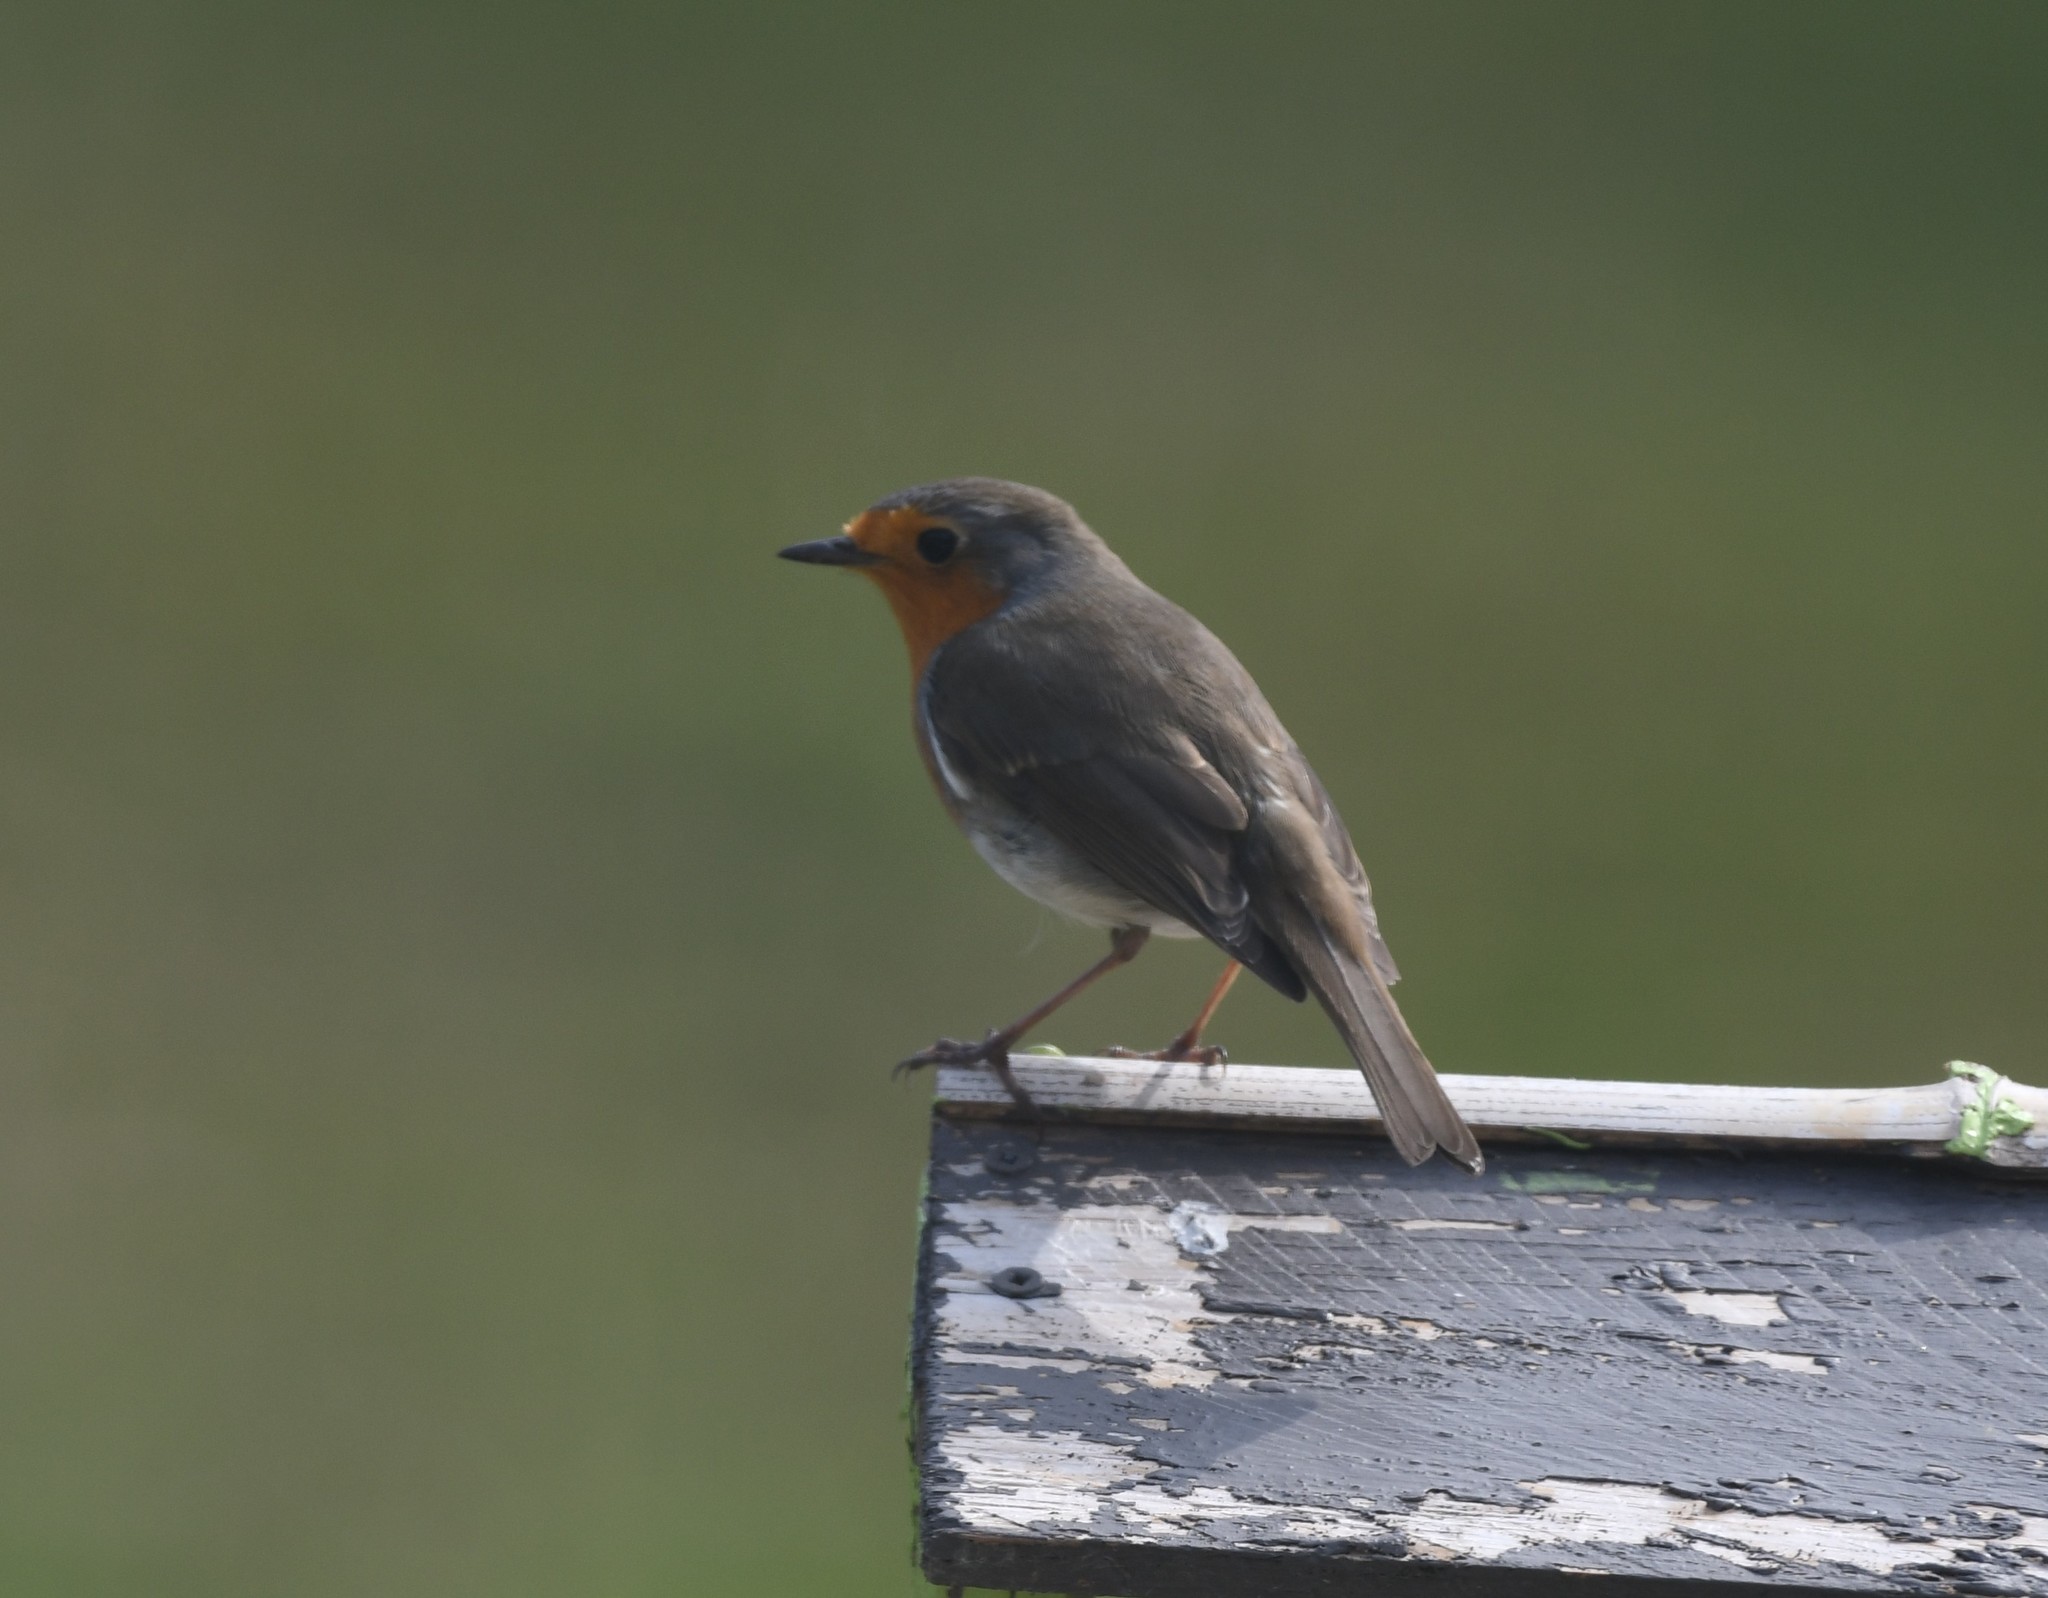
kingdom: Animalia
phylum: Chordata
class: Aves
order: Passeriformes
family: Muscicapidae
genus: Erithacus
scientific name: Erithacus rubecula
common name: European robin
